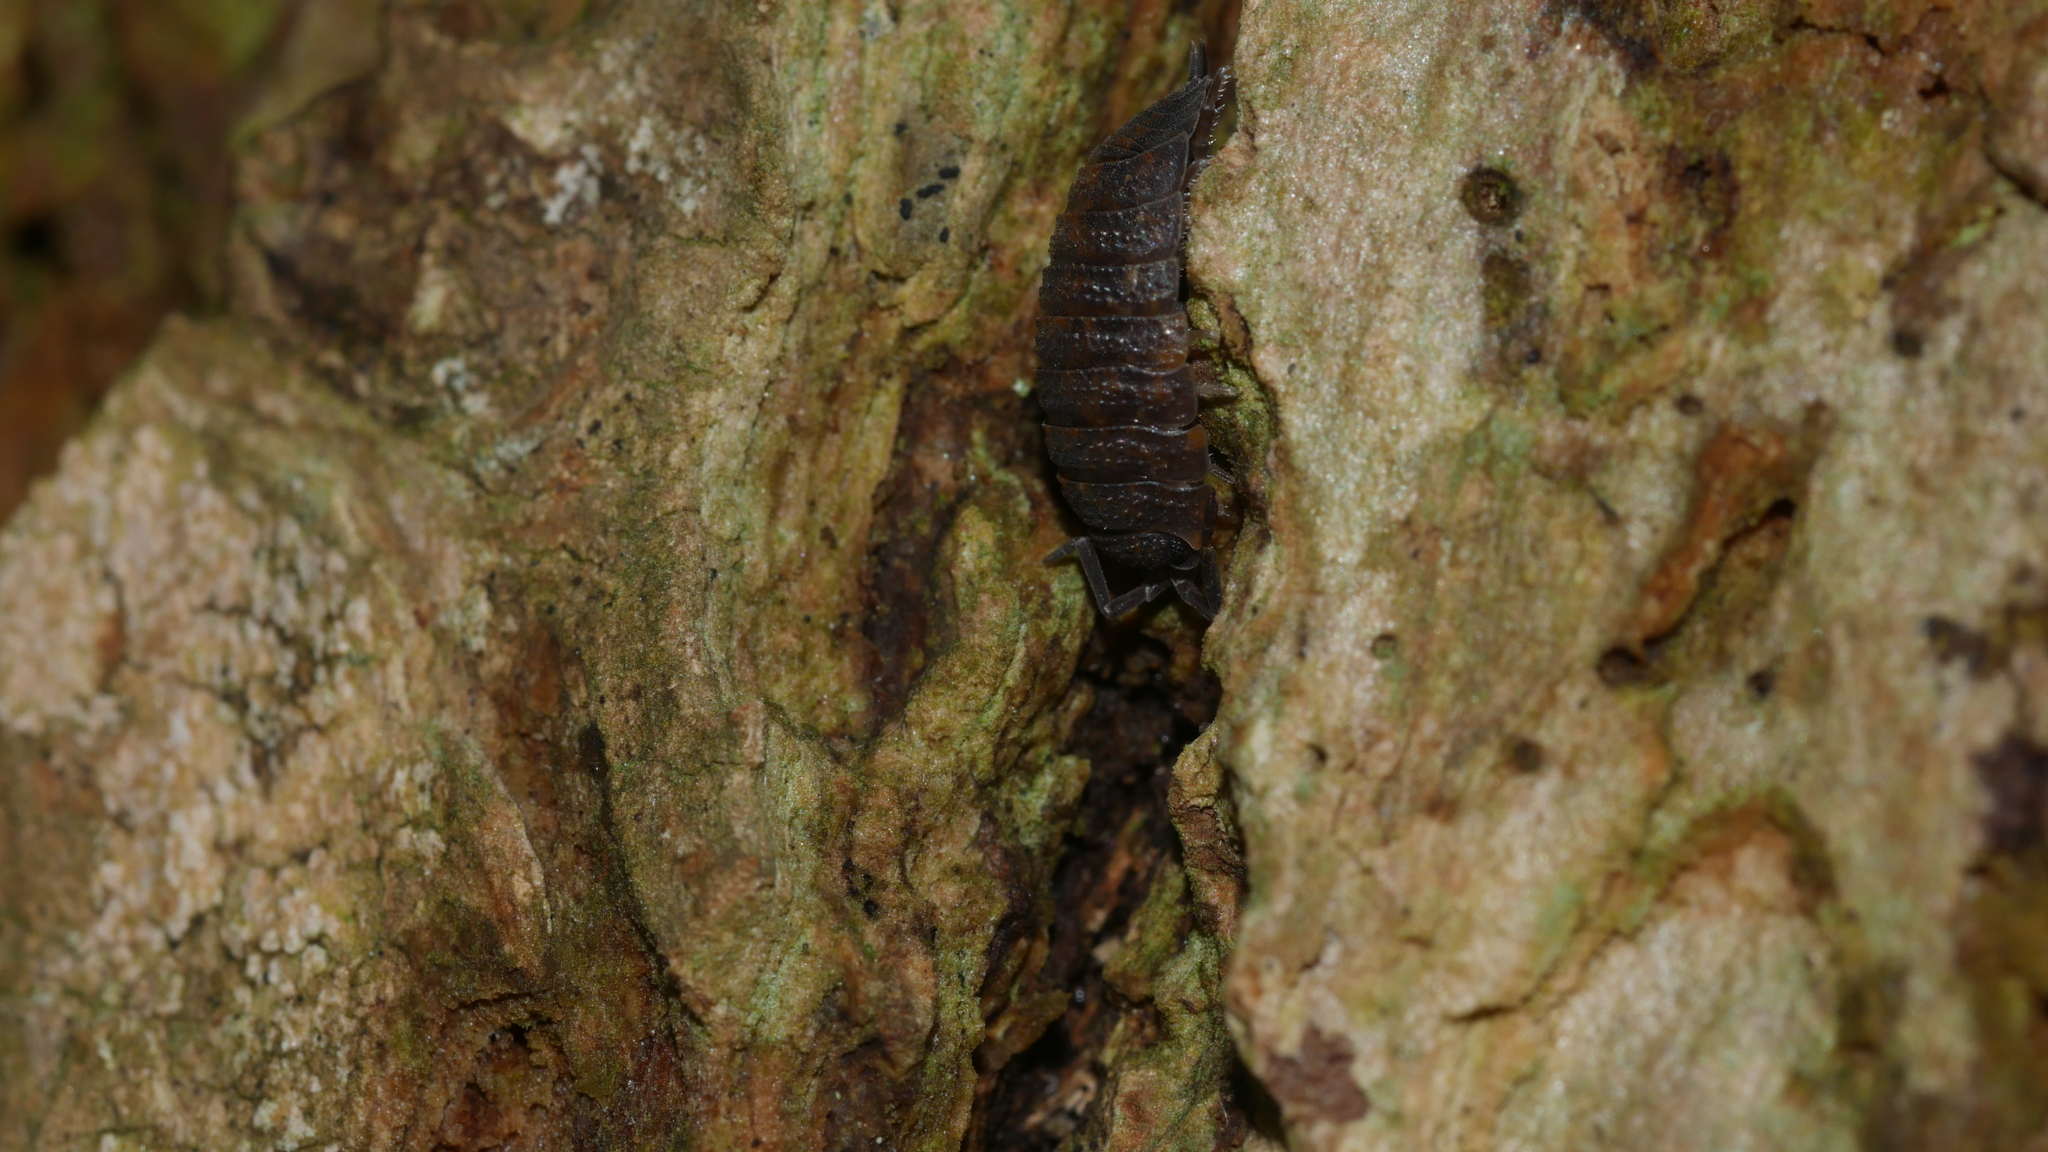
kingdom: Animalia
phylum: Arthropoda
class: Malacostraca
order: Isopoda
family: Porcellionidae
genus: Porcellio
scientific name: Porcellio scaber
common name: Common rough woodlouse
